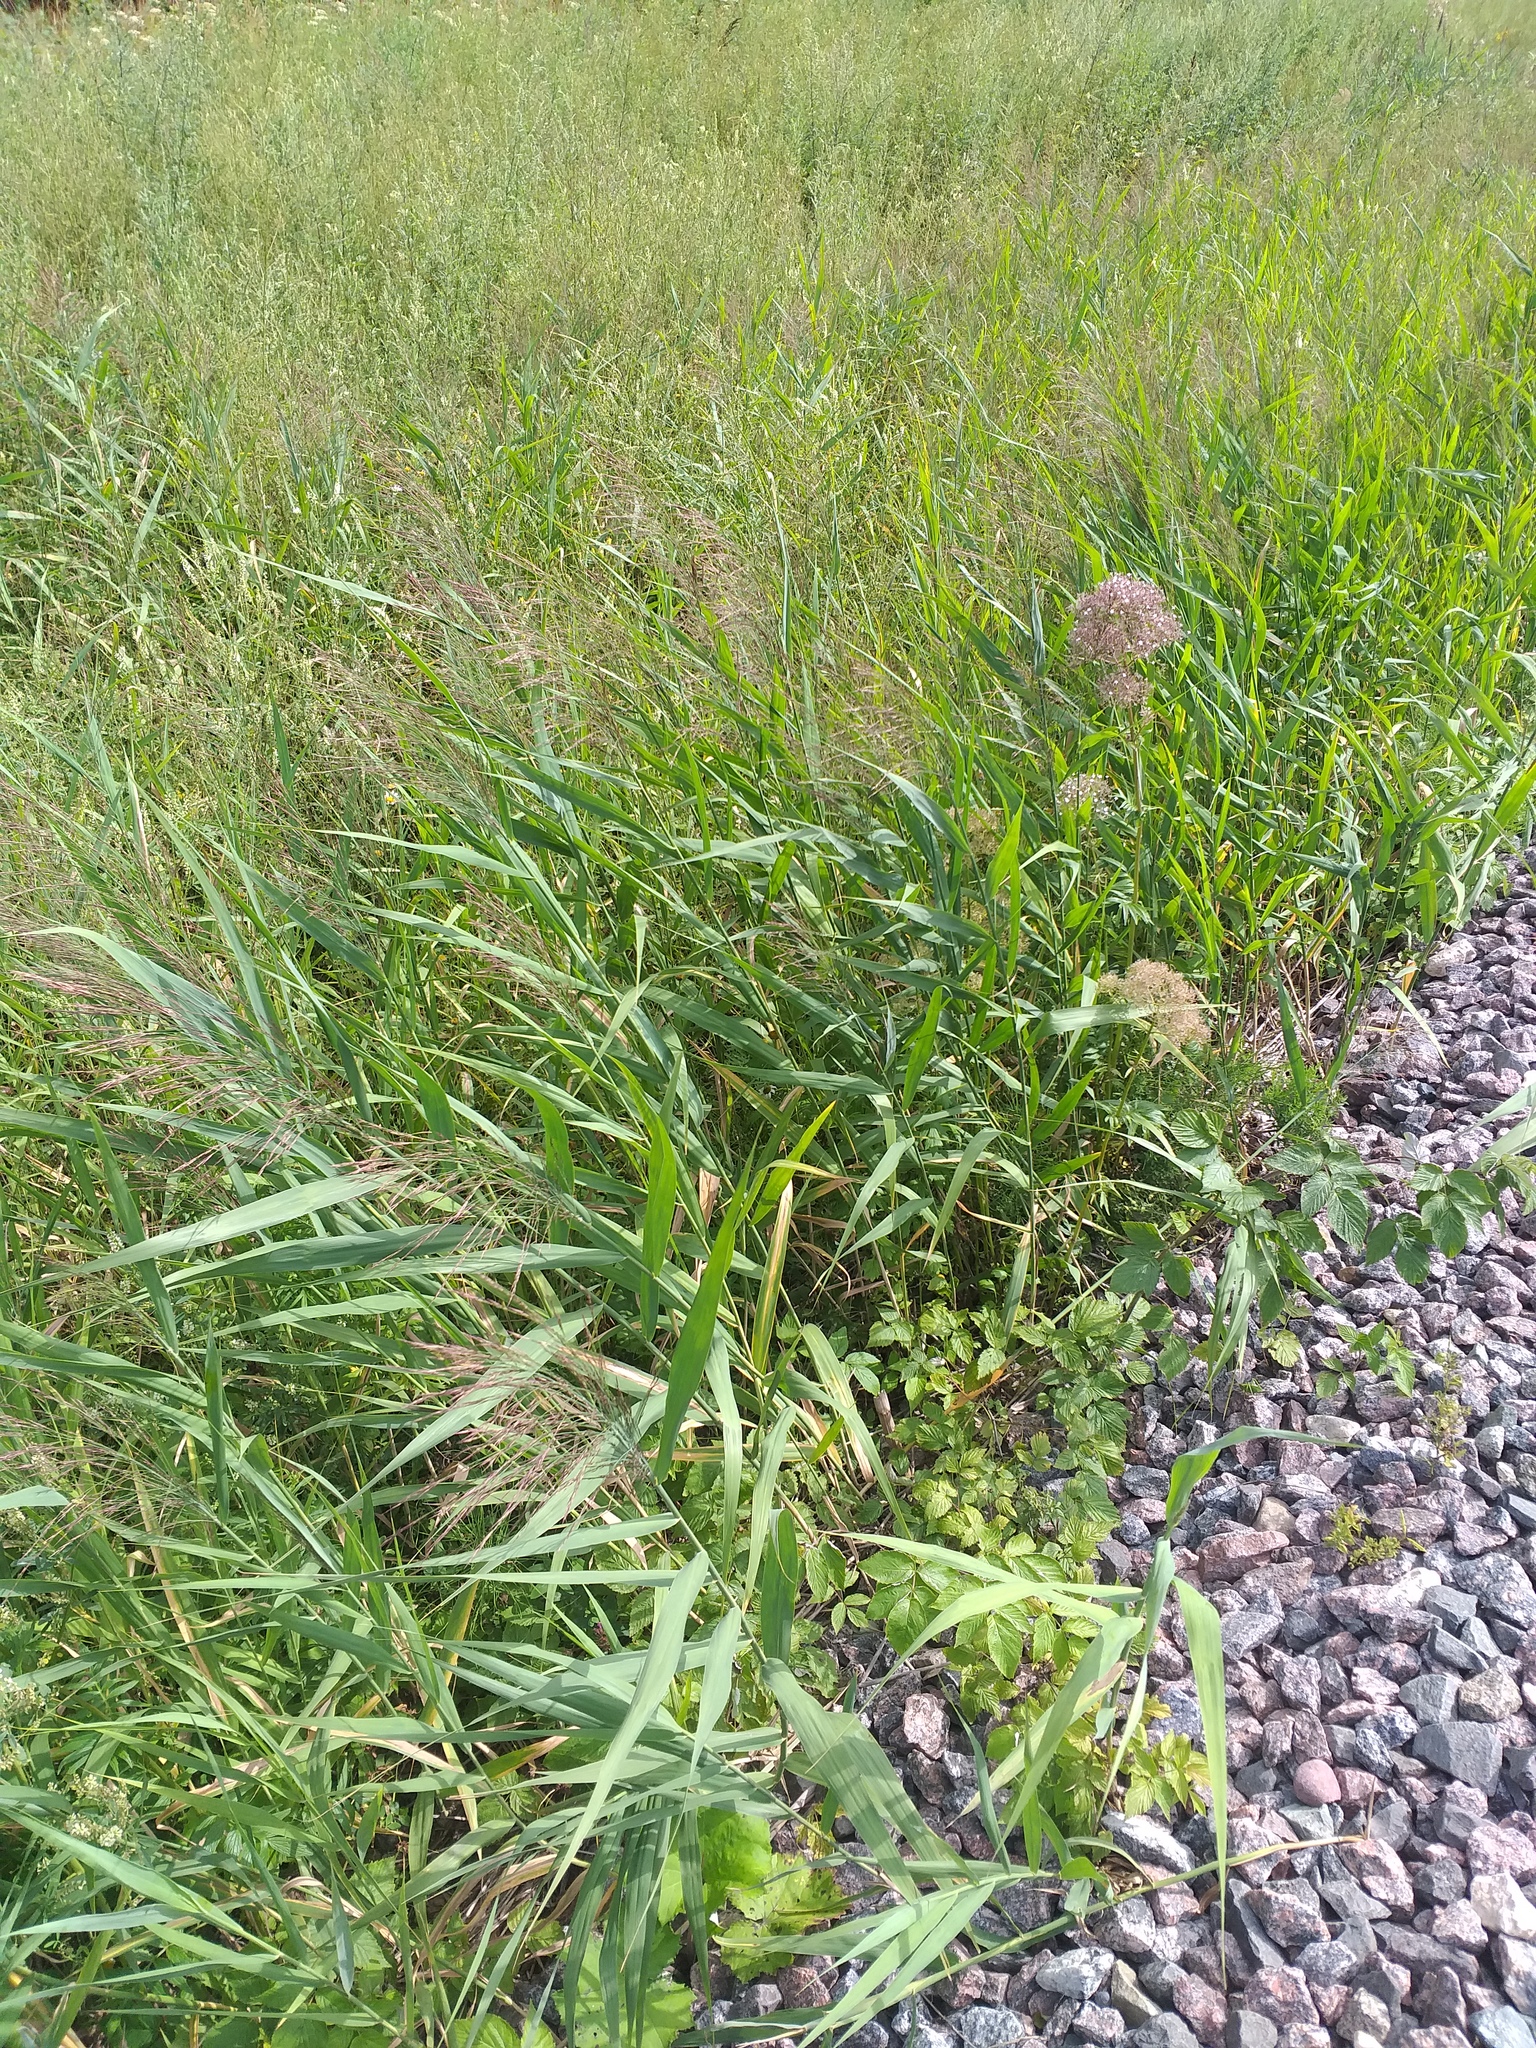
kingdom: Plantae
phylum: Tracheophyta
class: Liliopsida
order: Poales
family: Poaceae
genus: Phragmites
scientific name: Phragmites australis
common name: Common reed
